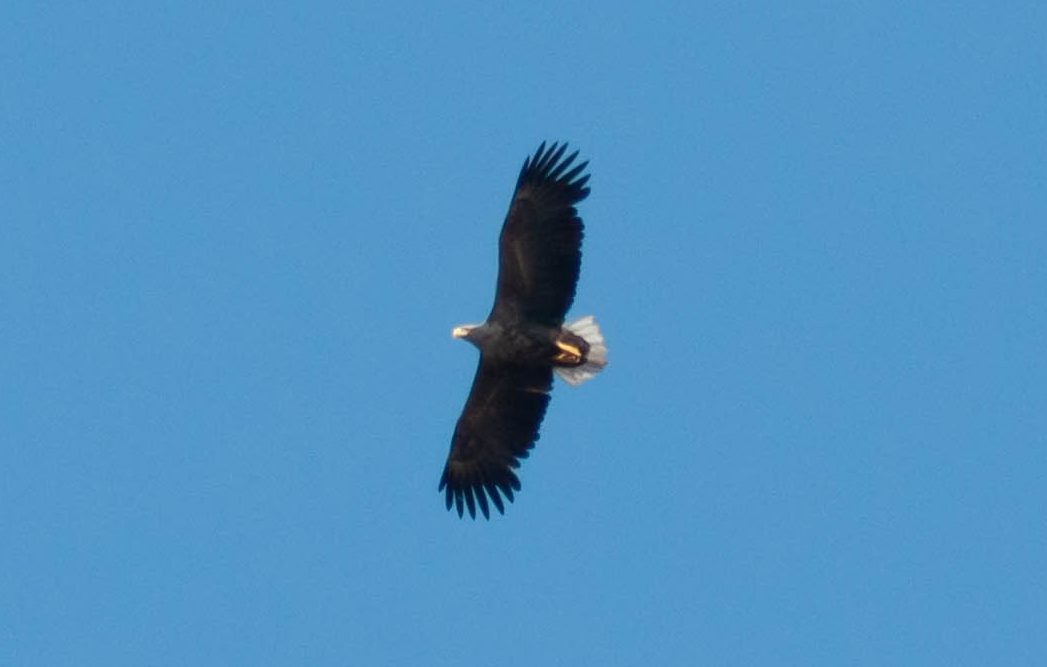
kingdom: Animalia
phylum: Chordata
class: Aves
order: Accipitriformes
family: Accipitridae
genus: Haliaeetus
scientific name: Haliaeetus albicilla
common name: White-tailed eagle
